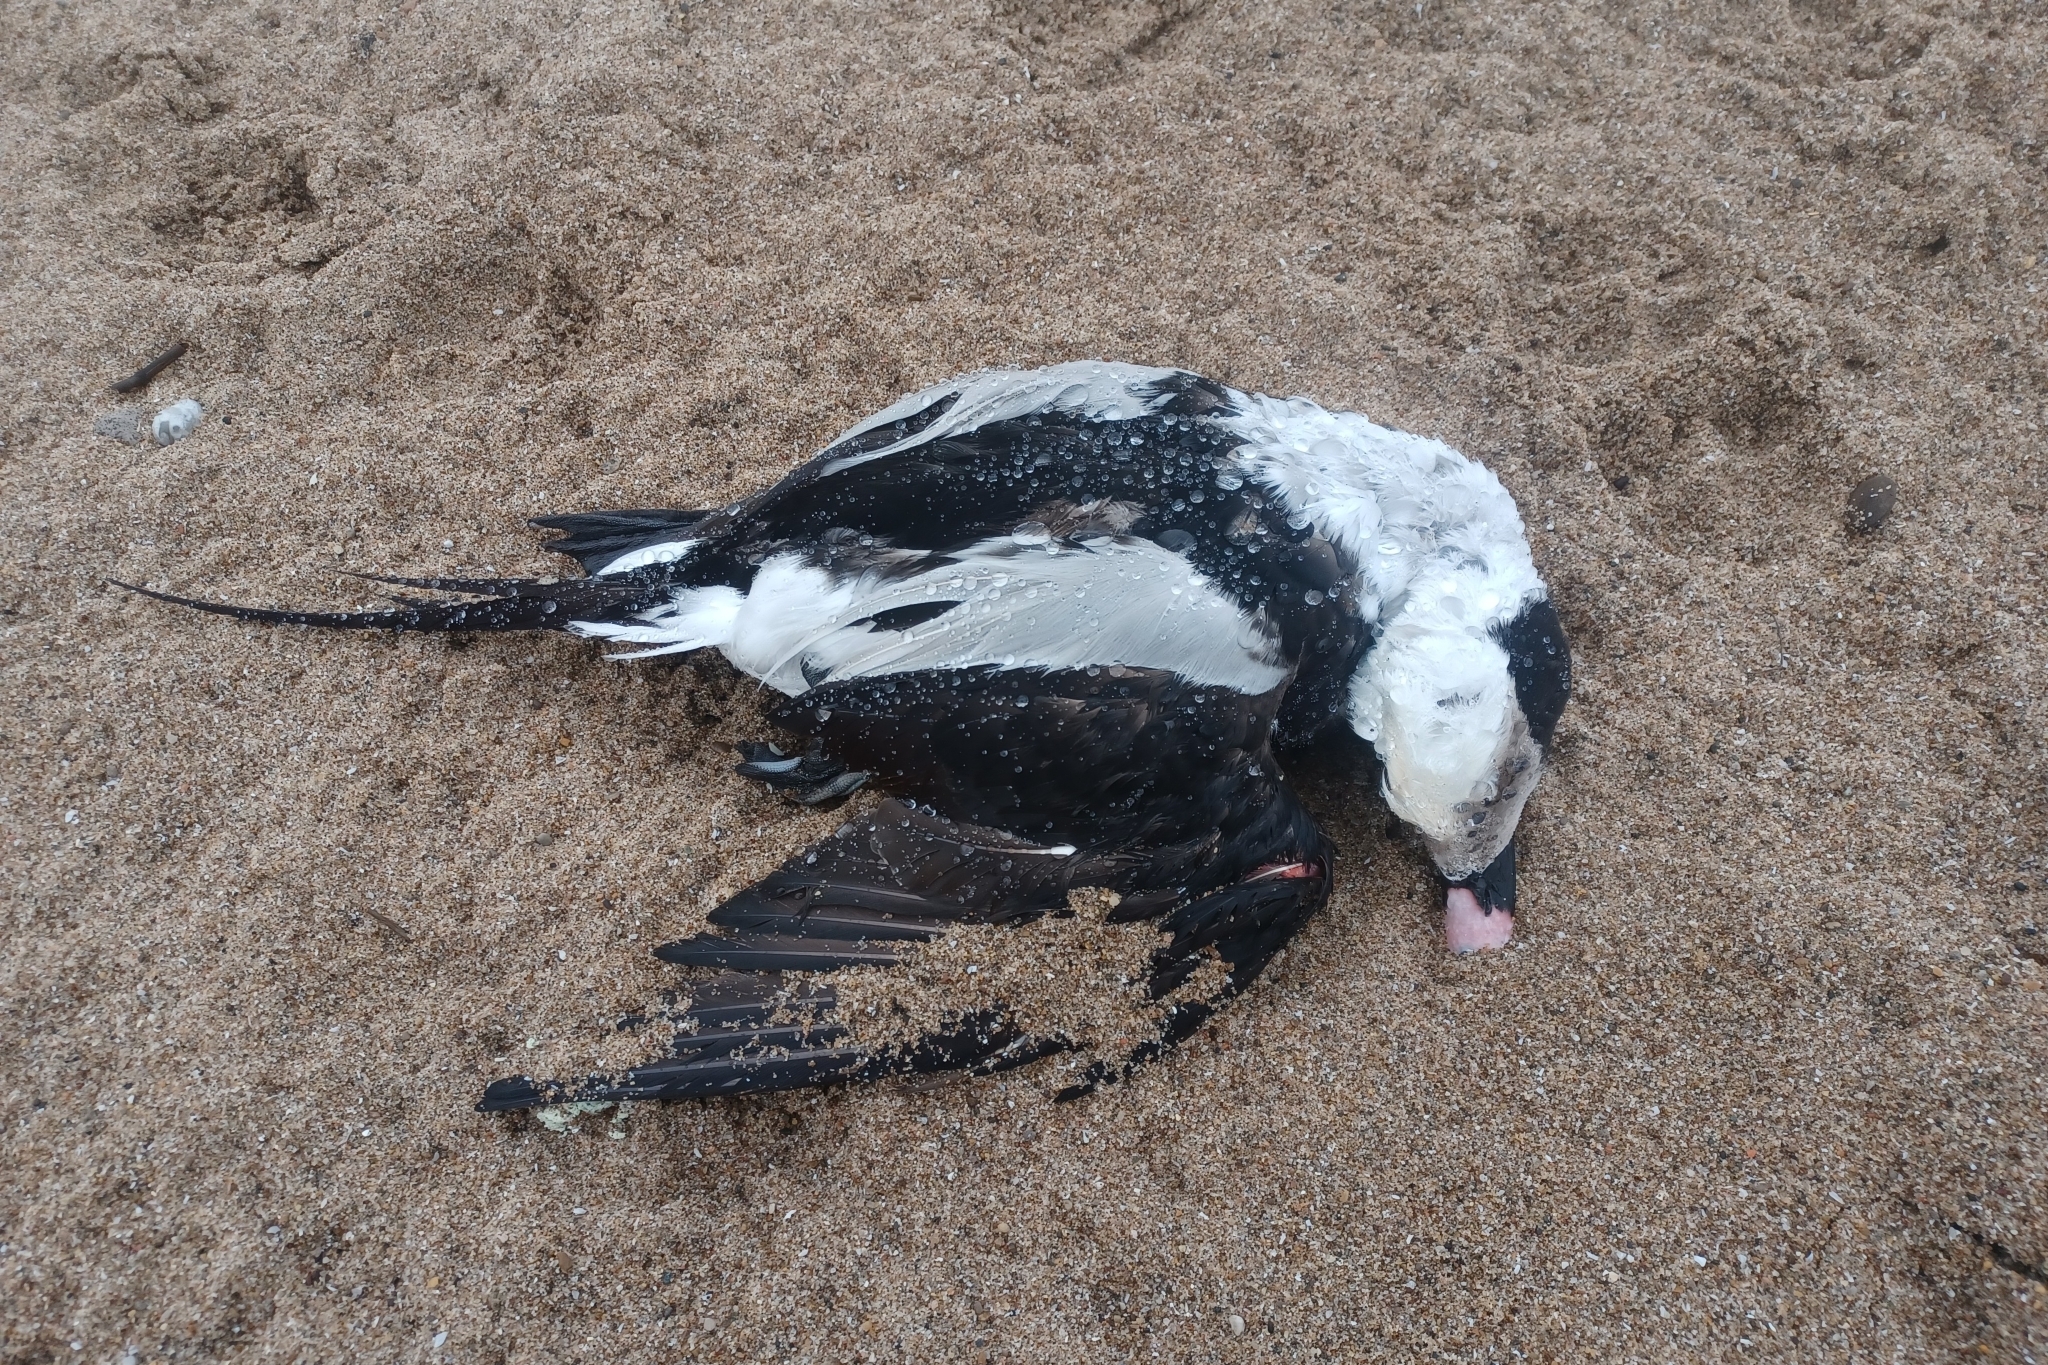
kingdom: Animalia
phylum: Chordata
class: Aves
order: Anseriformes
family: Anatidae
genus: Clangula
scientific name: Clangula hyemalis
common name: Long-tailed duck
